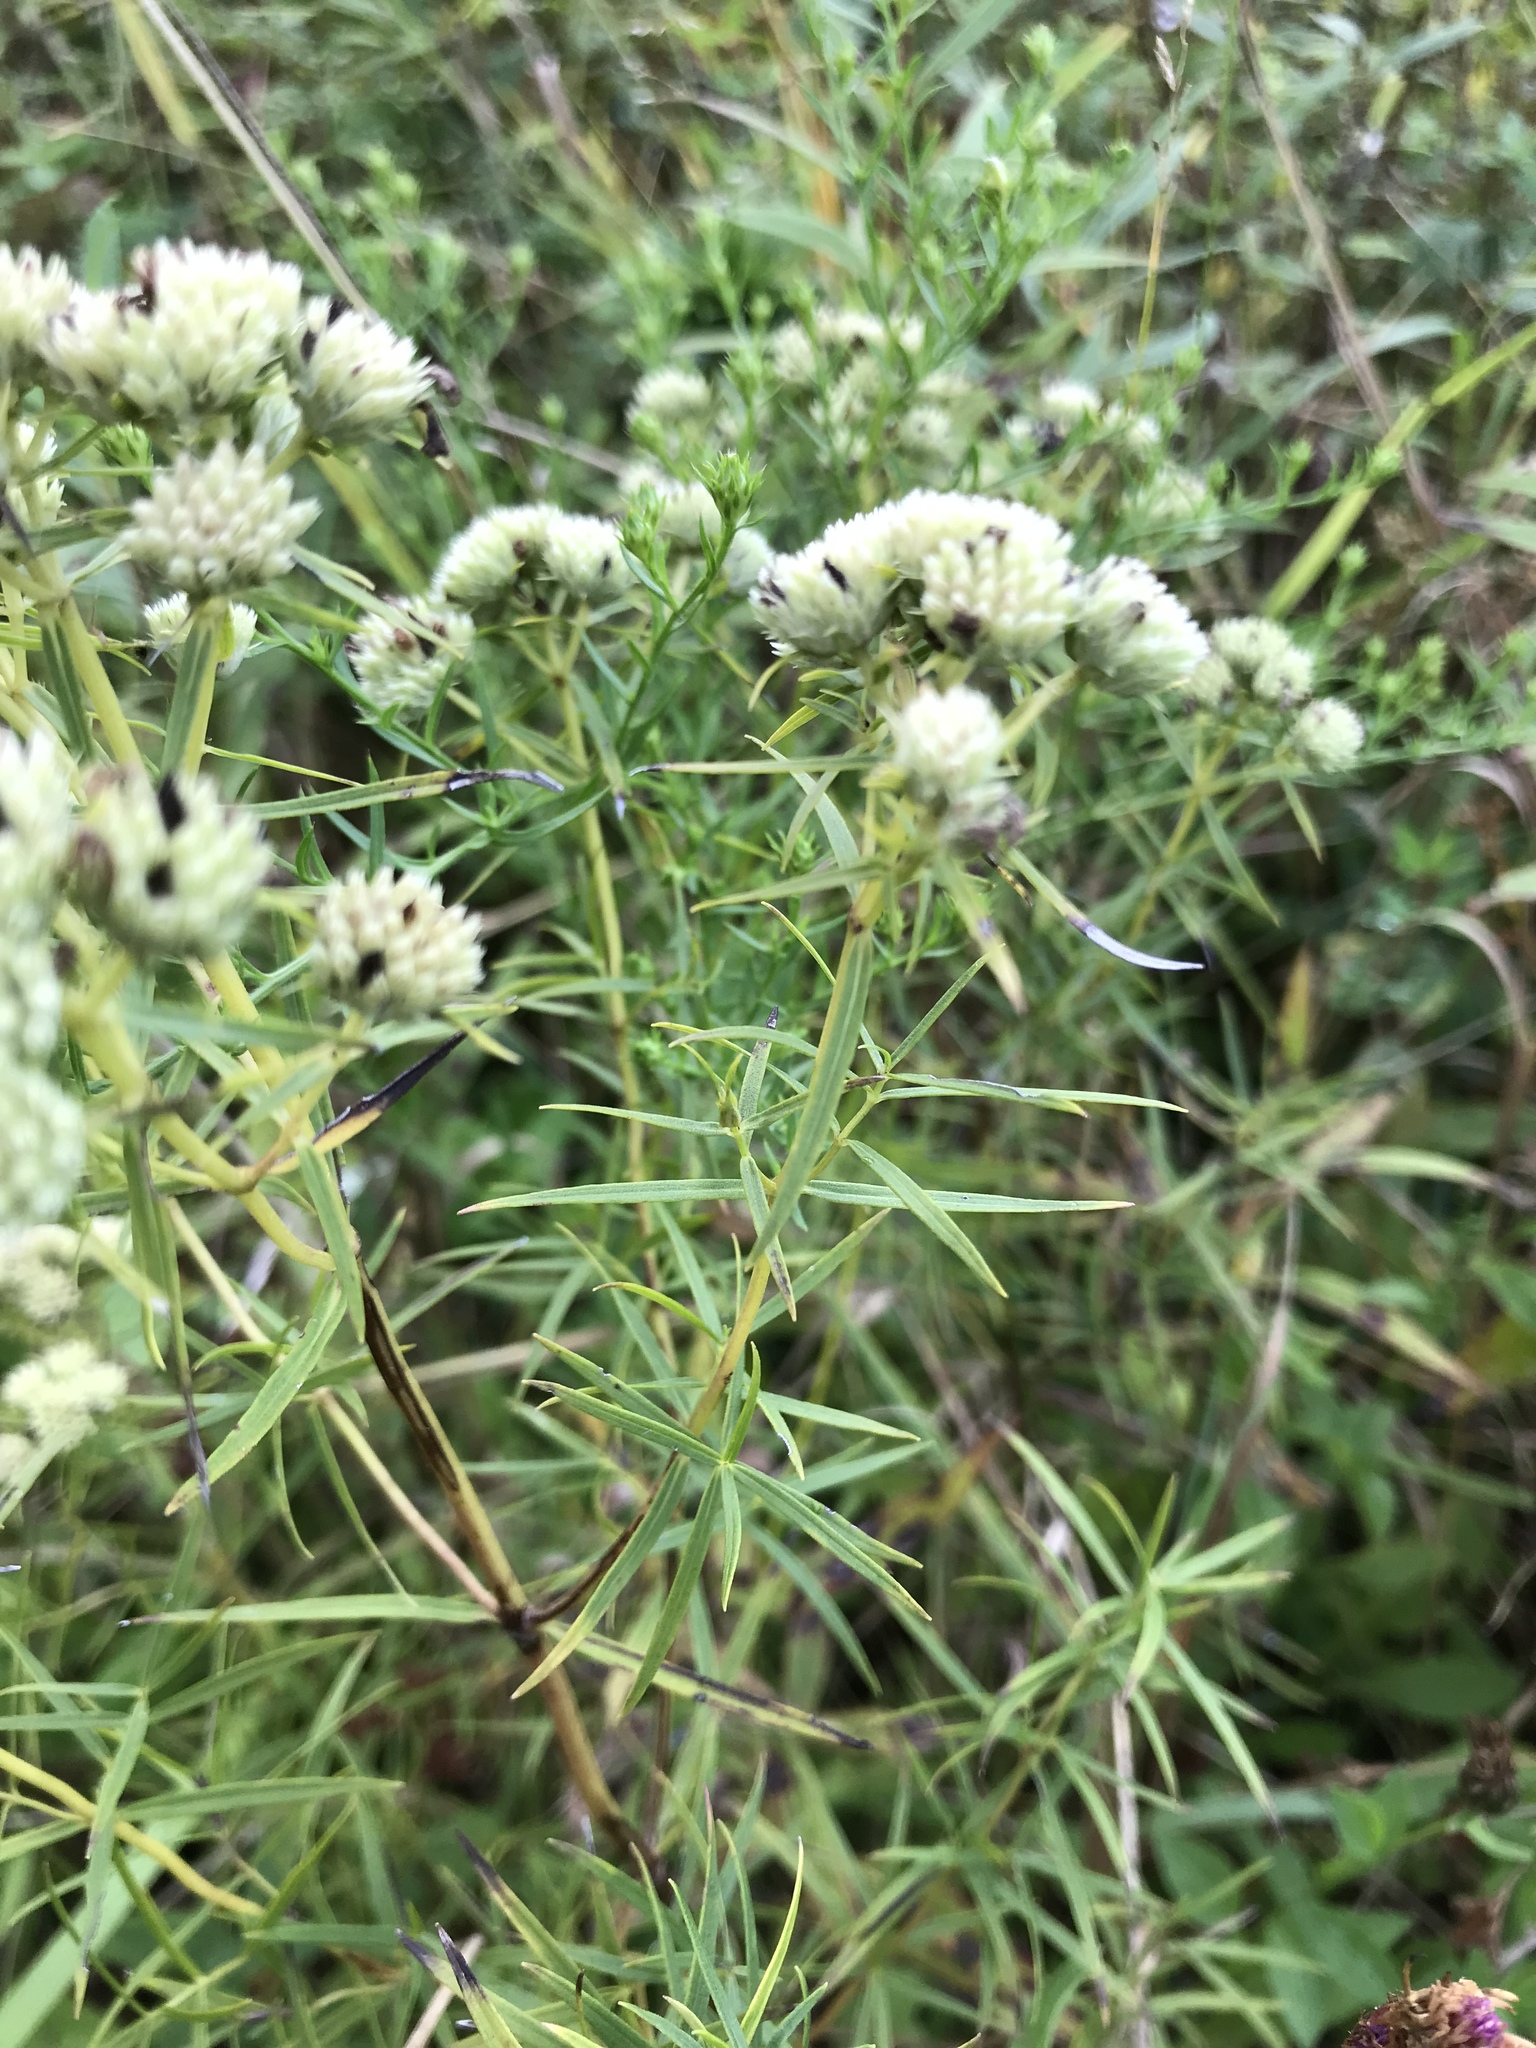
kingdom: Plantae
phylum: Tracheophyta
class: Magnoliopsida
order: Lamiales
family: Lamiaceae
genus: Pycnanthemum
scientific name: Pycnanthemum tenuifolium
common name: Narrow-leaf mountain-mint
